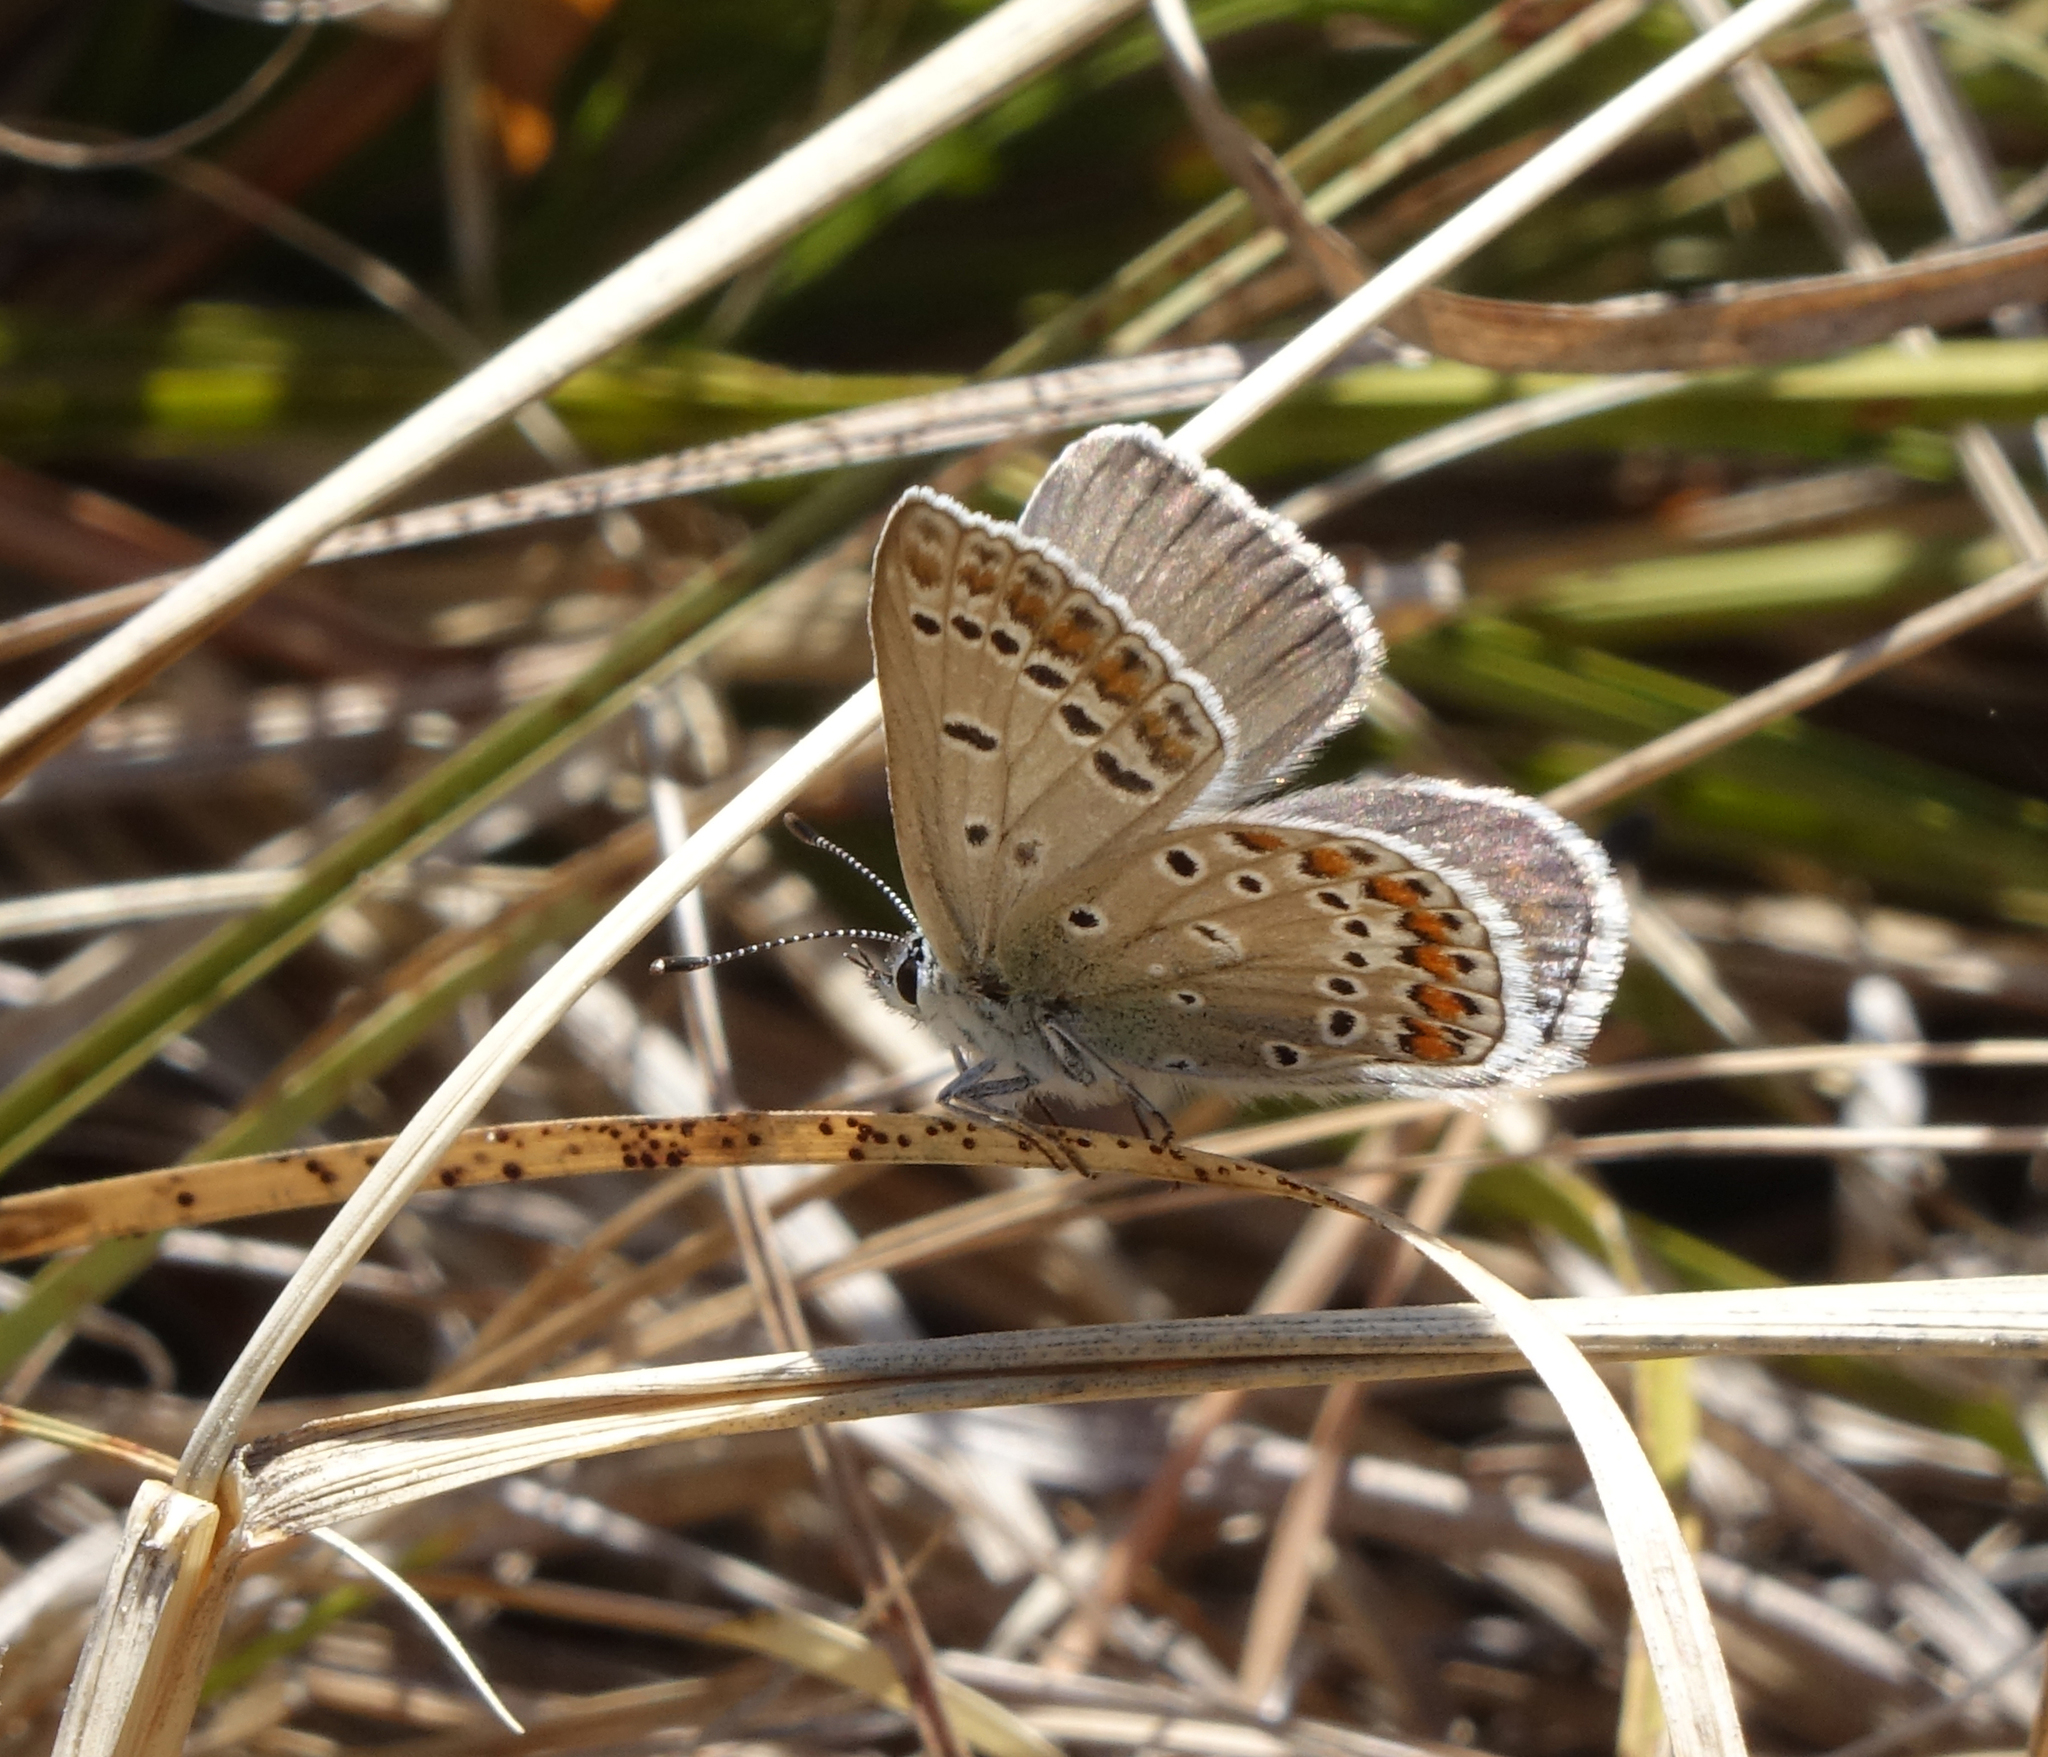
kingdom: Animalia
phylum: Arthropoda
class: Insecta
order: Lepidoptera
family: Lycaenidae
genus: Polyommatus
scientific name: Polyommatus icarus
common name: Common blue
